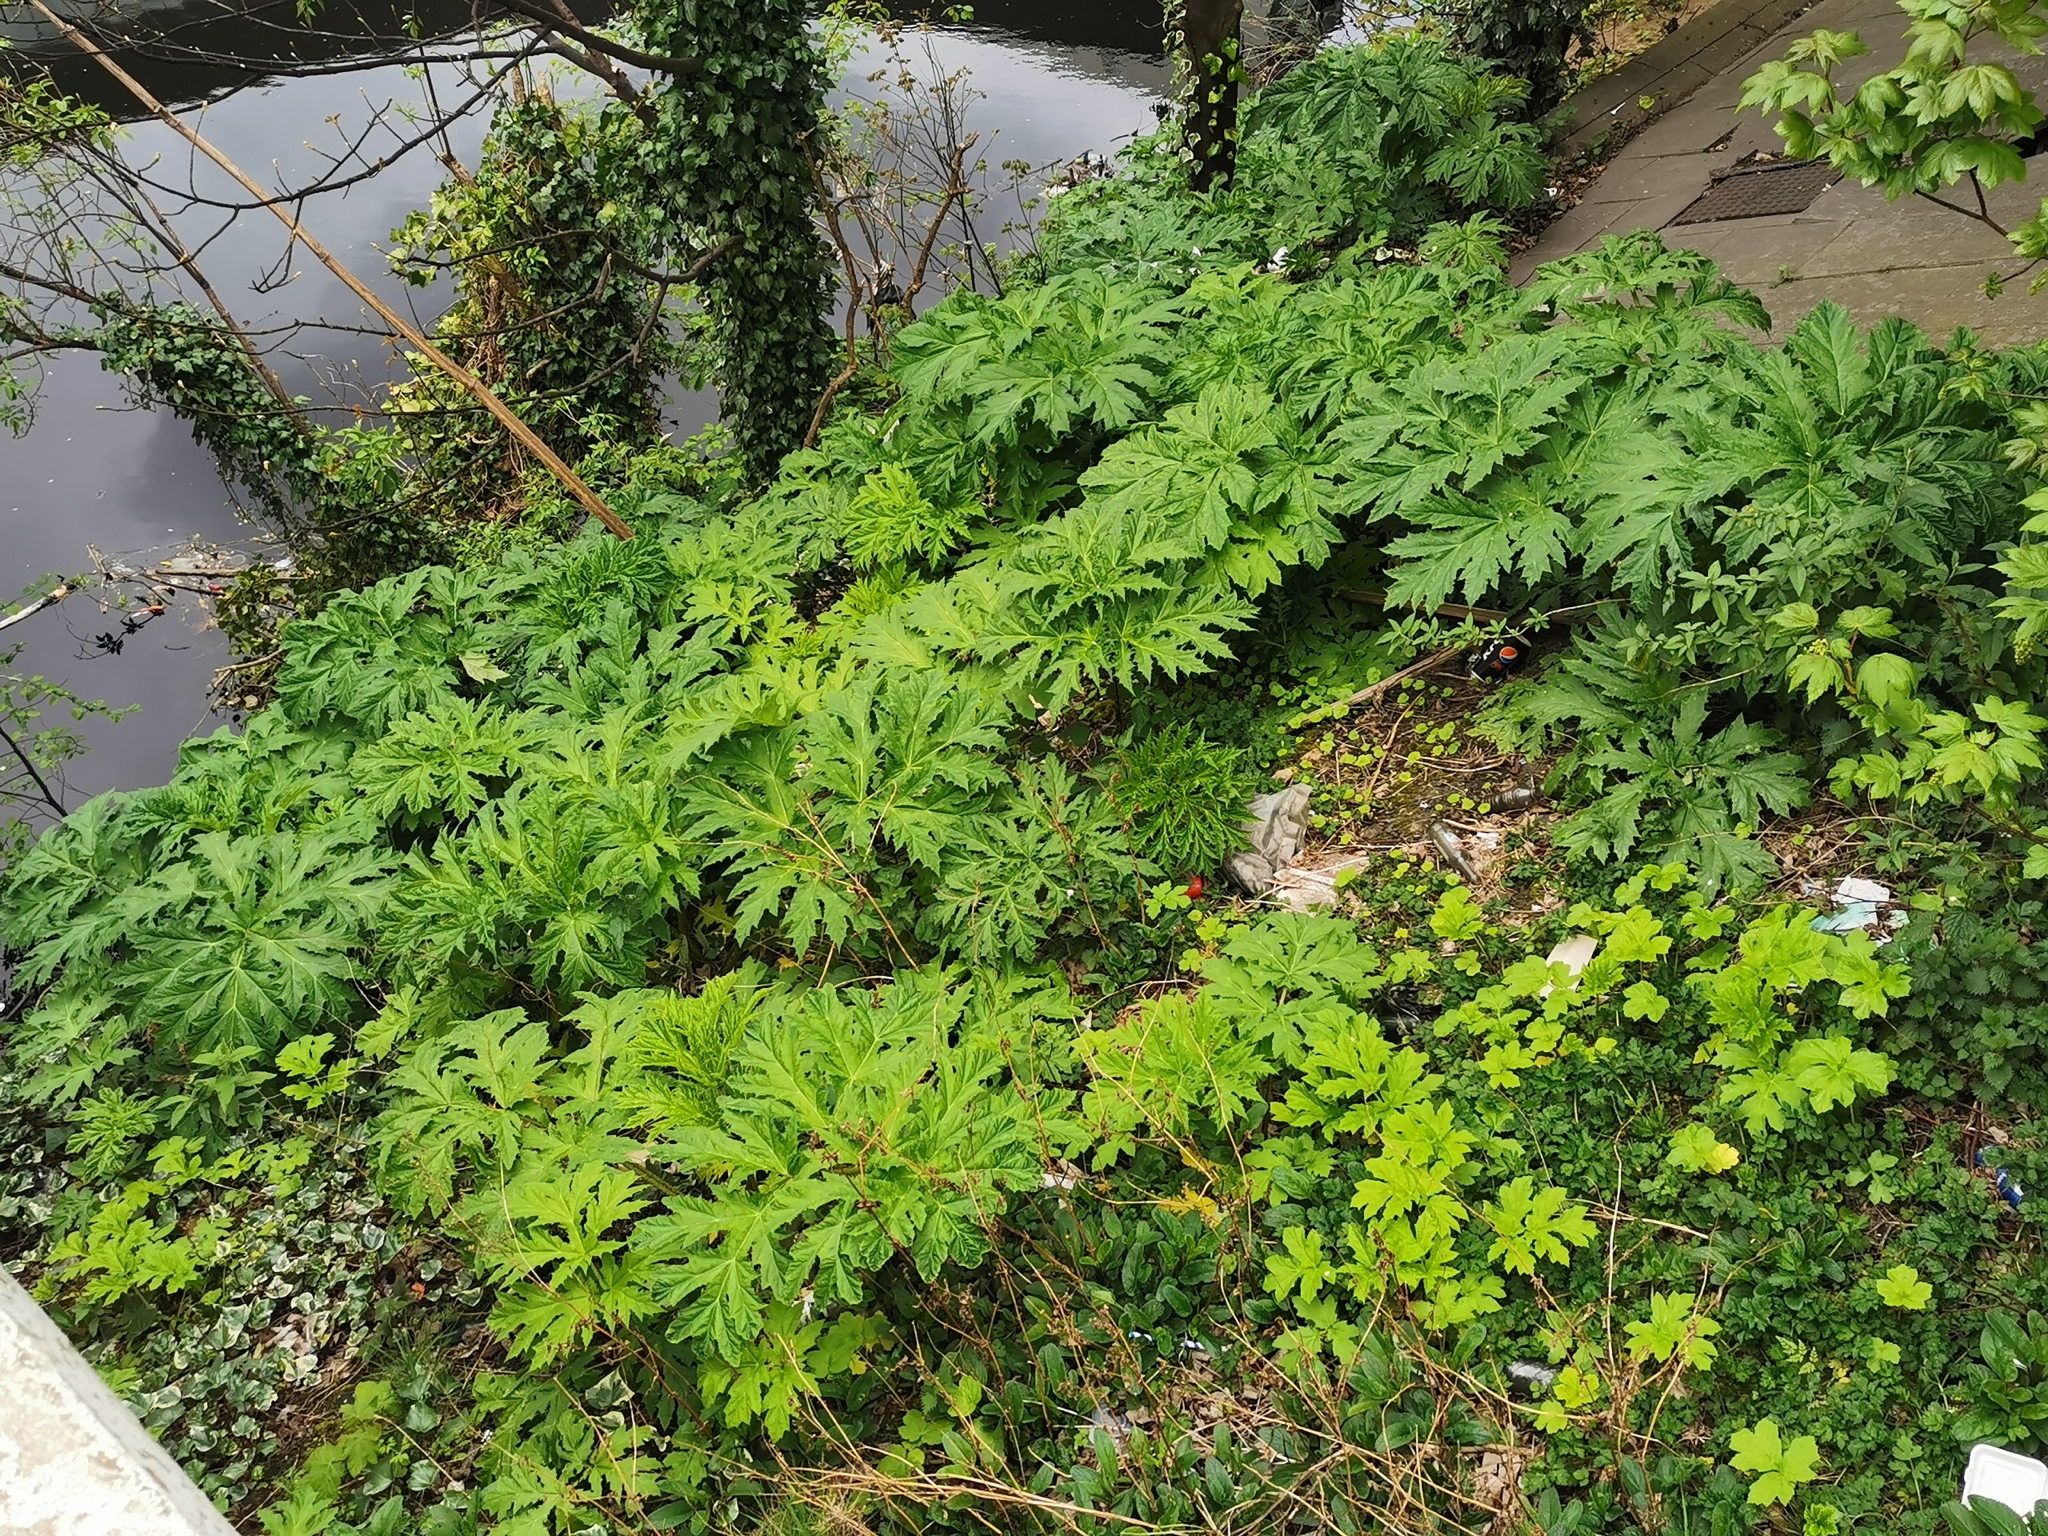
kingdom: Plantae
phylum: Tracheophyta
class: Magnoliopsida
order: Apiales
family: Apiaceae
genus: Heracleum
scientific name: Heracleum mantegazzianum
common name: Giant hogweed
